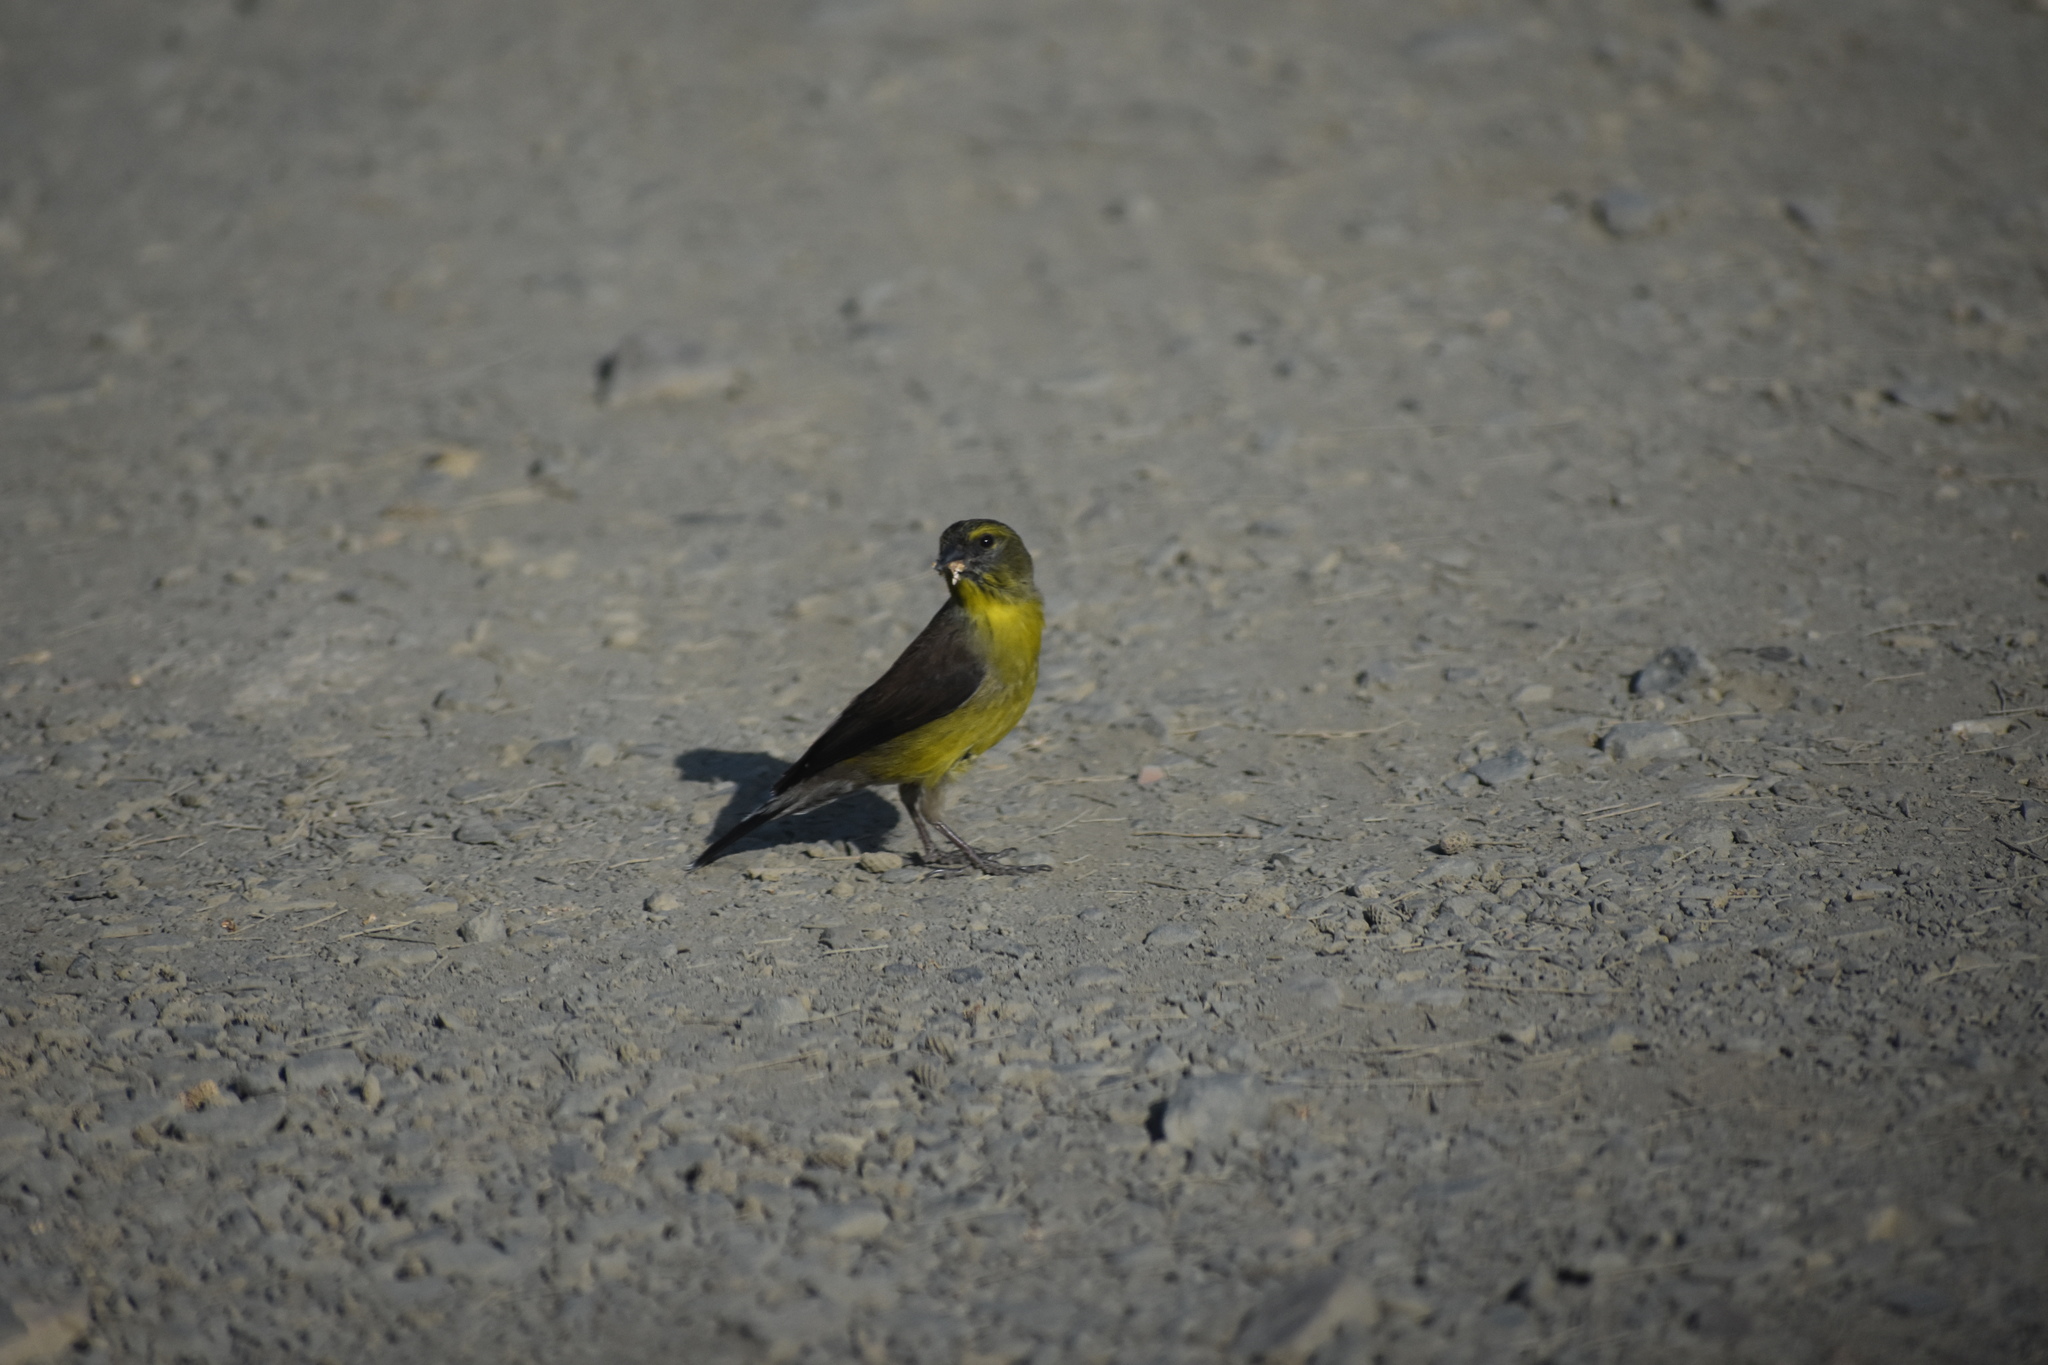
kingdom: Animalia
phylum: Chordata
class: Aves
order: Passeriformes
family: Fringillidae
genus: Crithagra
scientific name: Crithagra totta
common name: Cape siskin
